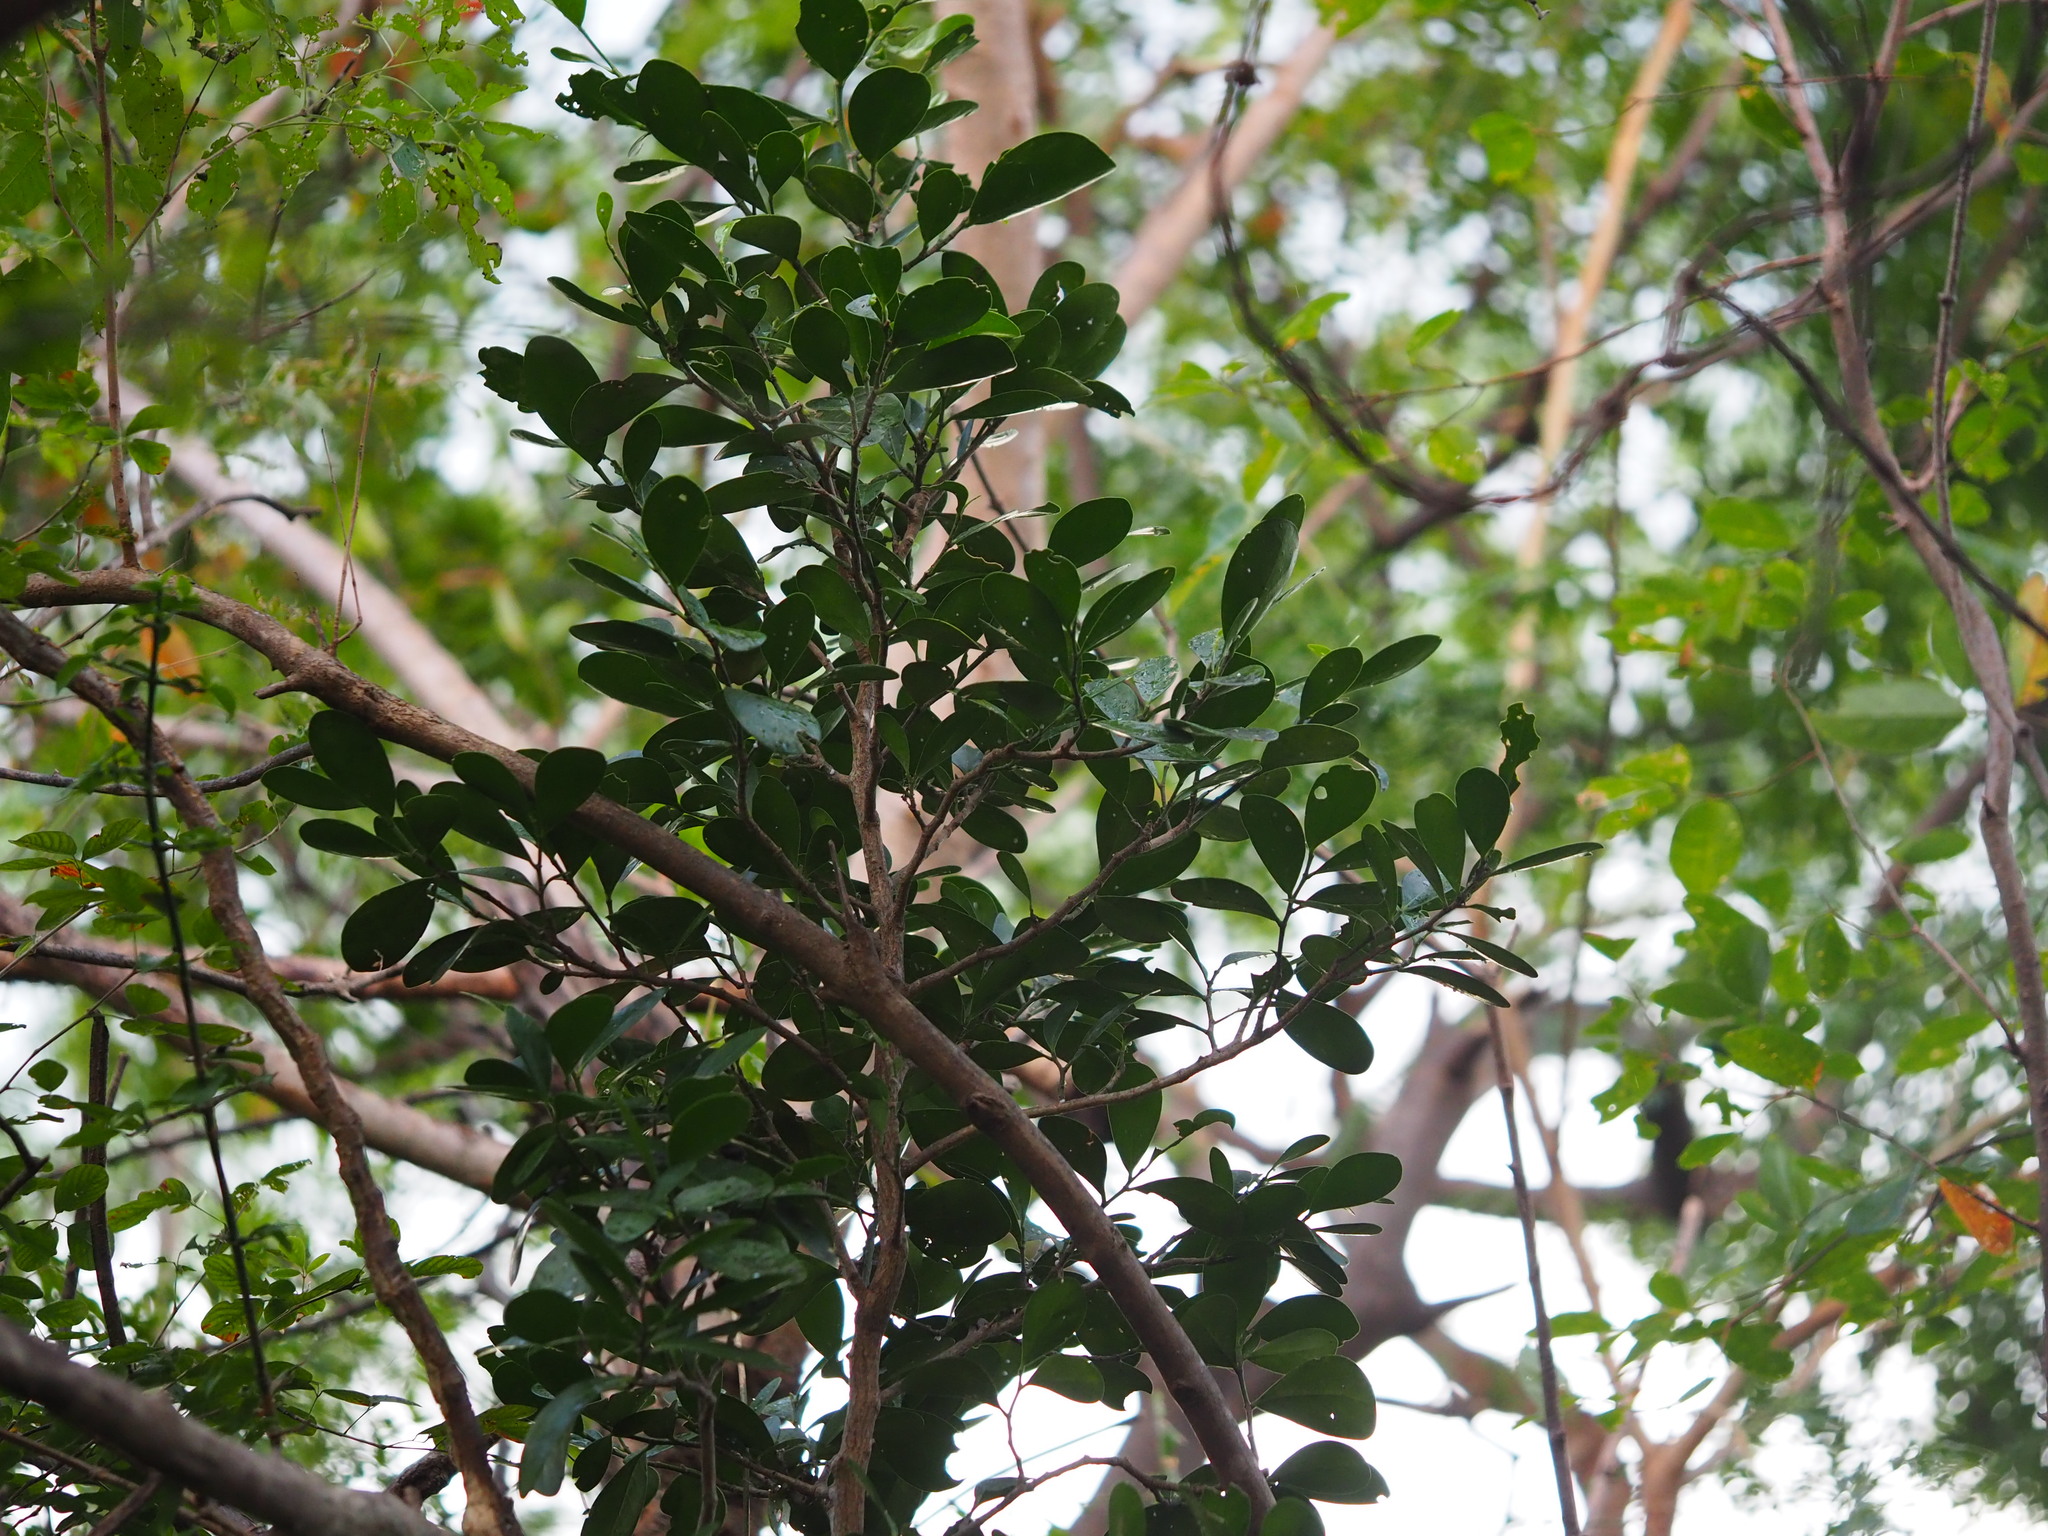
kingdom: Plantae
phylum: Tracheophyta
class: Magnoliopsida
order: Malpighiales
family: Euphorbiaceae
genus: Suregada
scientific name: Suregada aequorea
